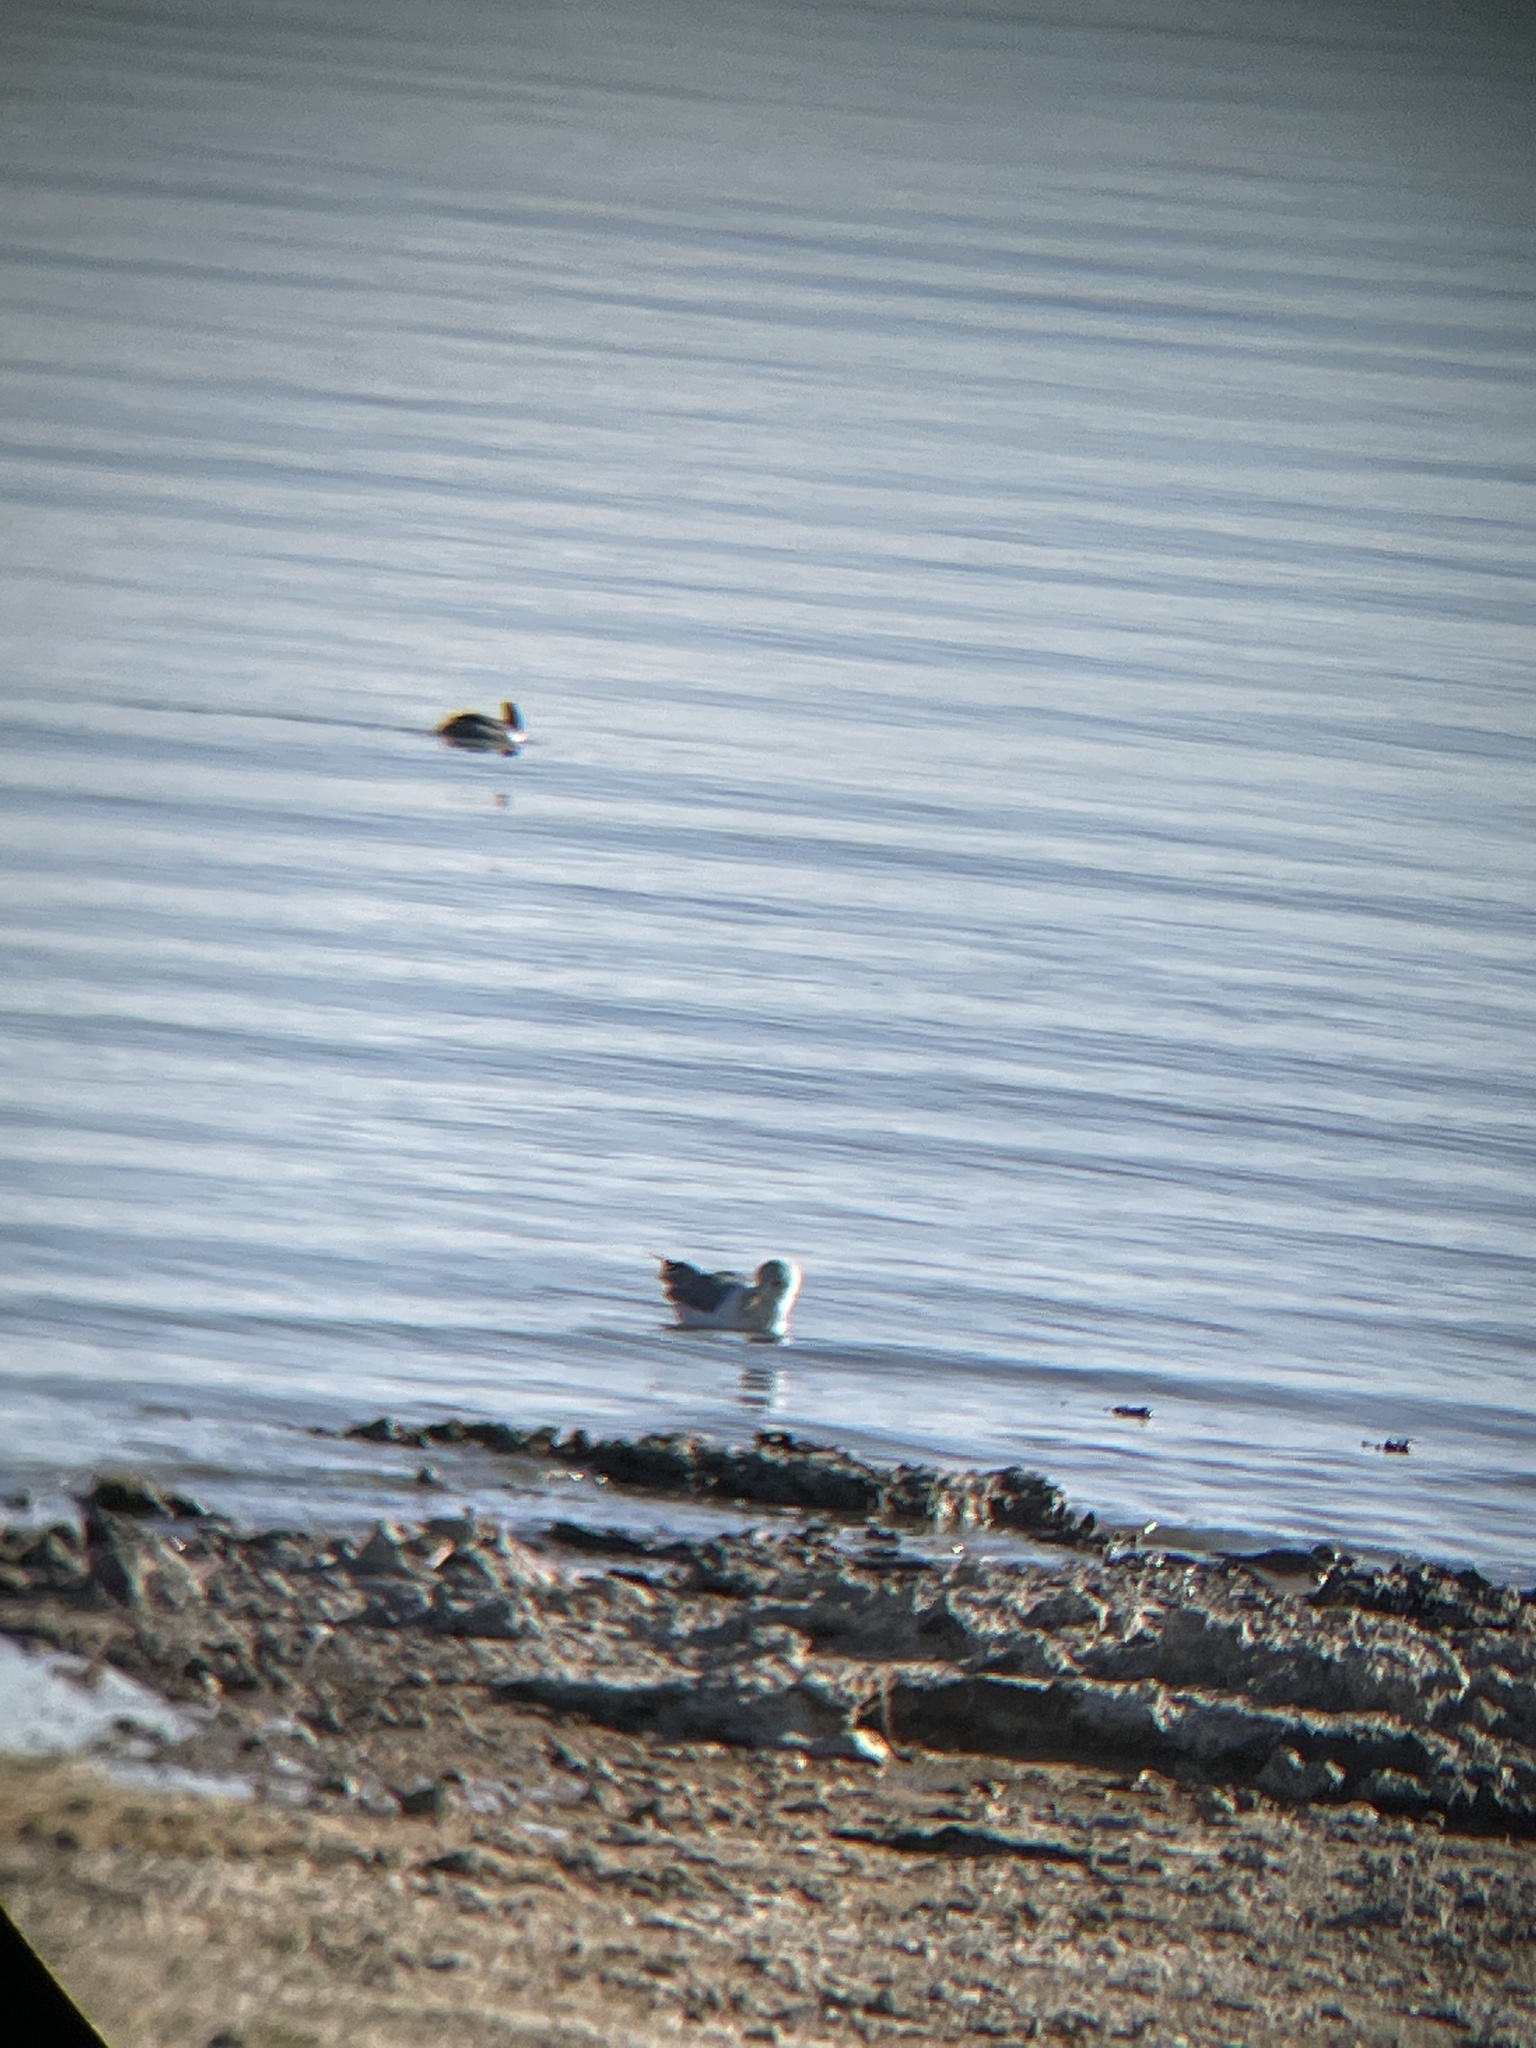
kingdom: Animalia
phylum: Chordata
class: Aves
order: Charadriiformes
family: Laridae
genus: Larus
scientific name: Larus californicus
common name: California gull
